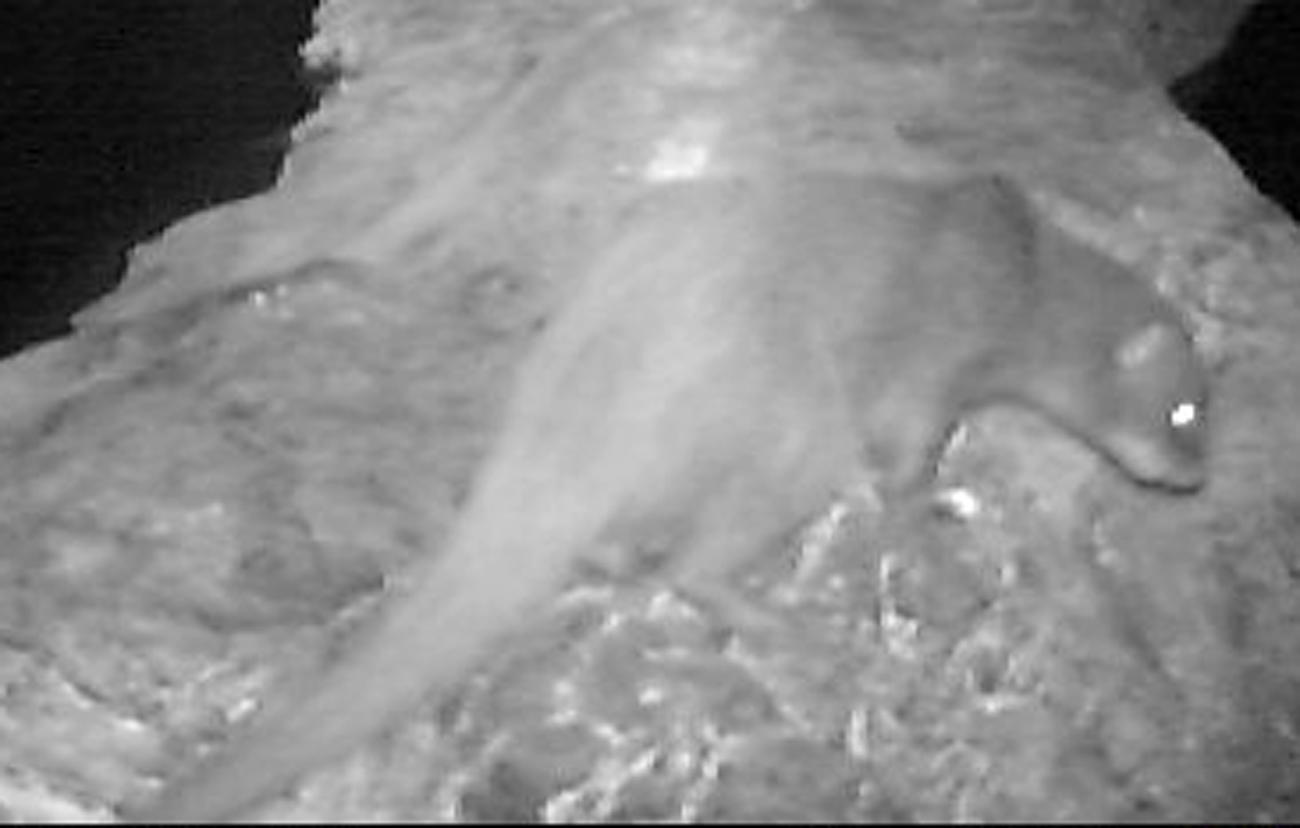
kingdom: Animalia
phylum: Chordata
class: Mammalia
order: Carnivora
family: Herpestidae
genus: Paracynictis
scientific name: Paracynictis selousi
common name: Selous's mongoose
